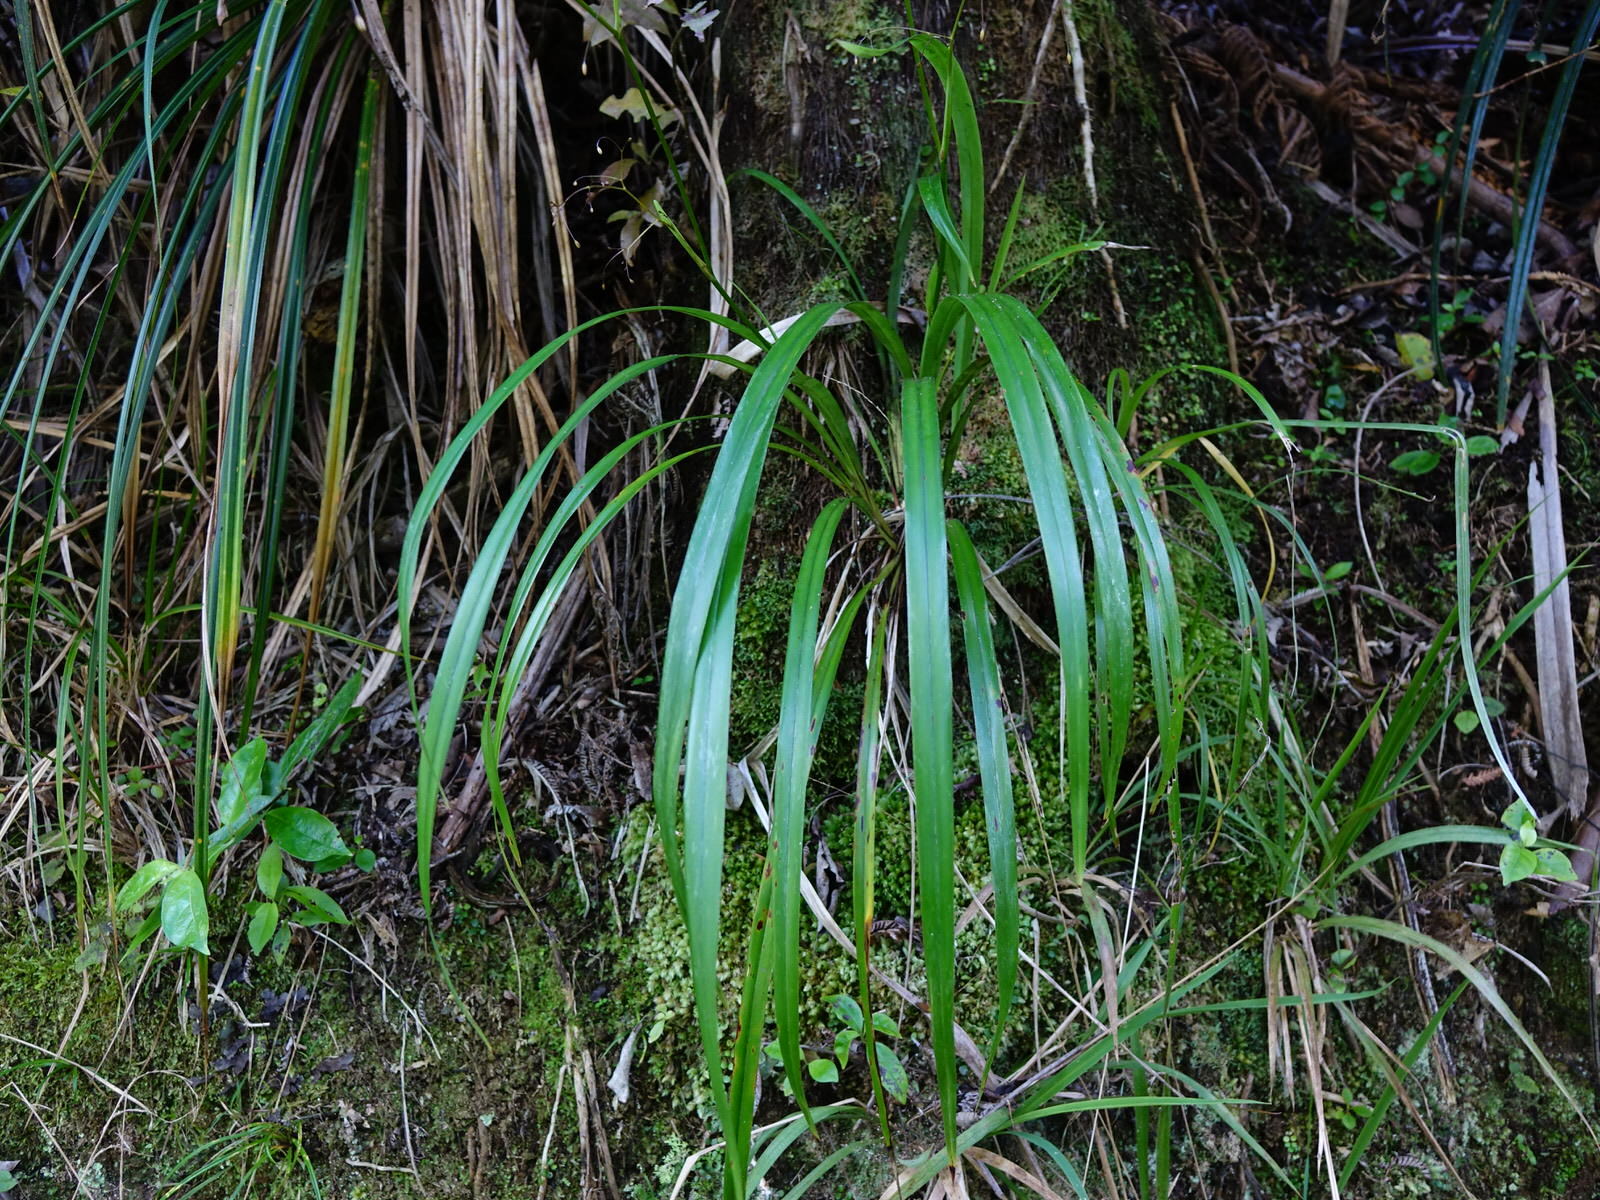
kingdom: Plantae
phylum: Tracheophyta
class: Liliopsida
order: Asparagales
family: Asphodelaceae
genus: Dianella
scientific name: Dianella nigra
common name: New zealand-blueberry
